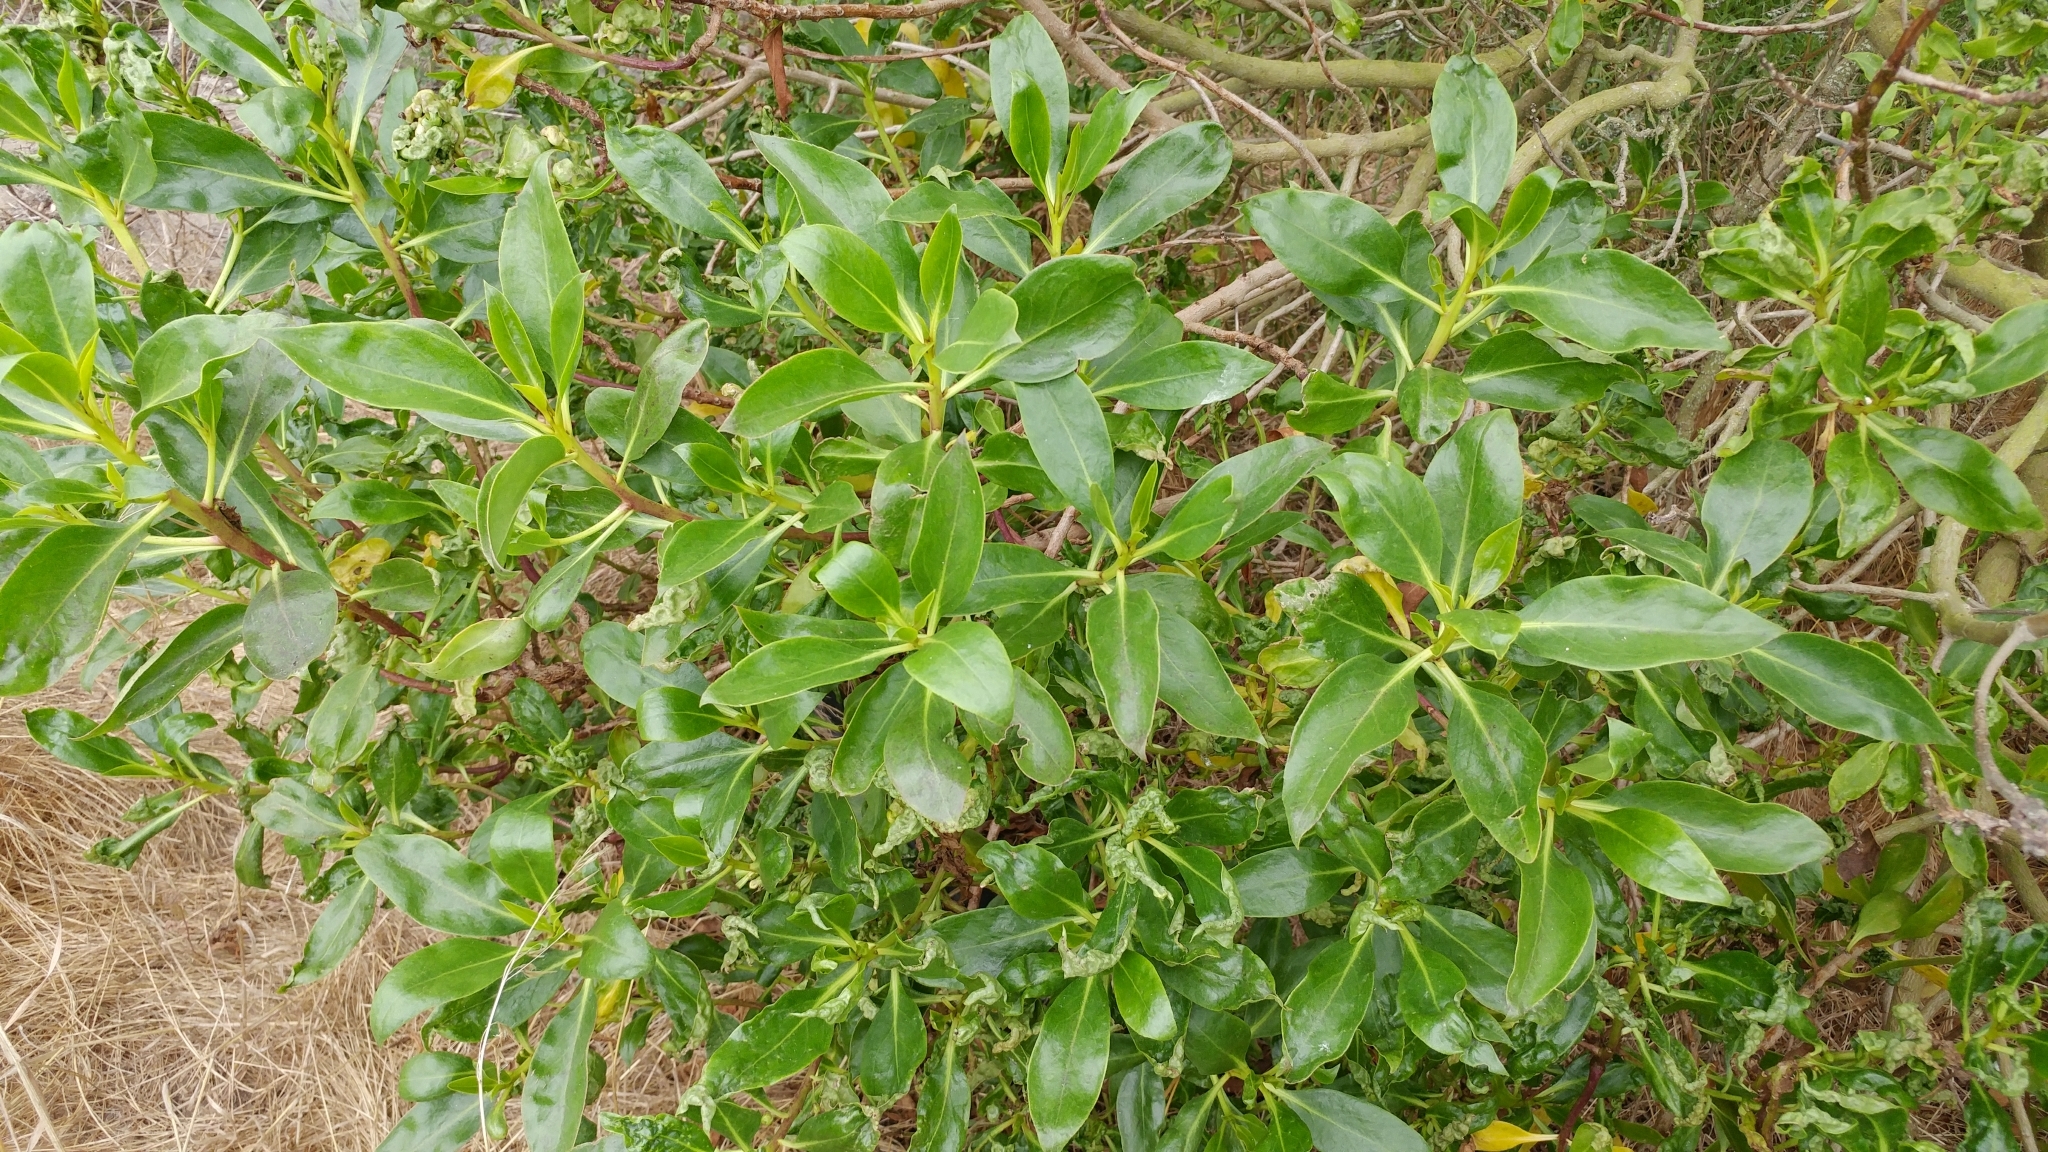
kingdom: Plantae
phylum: Tracheophyta
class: Magnoliopsida
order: Lamiales
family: Scrophulariaceae
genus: Myoporum
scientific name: Myoporum laetum
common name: Ngaio tree
